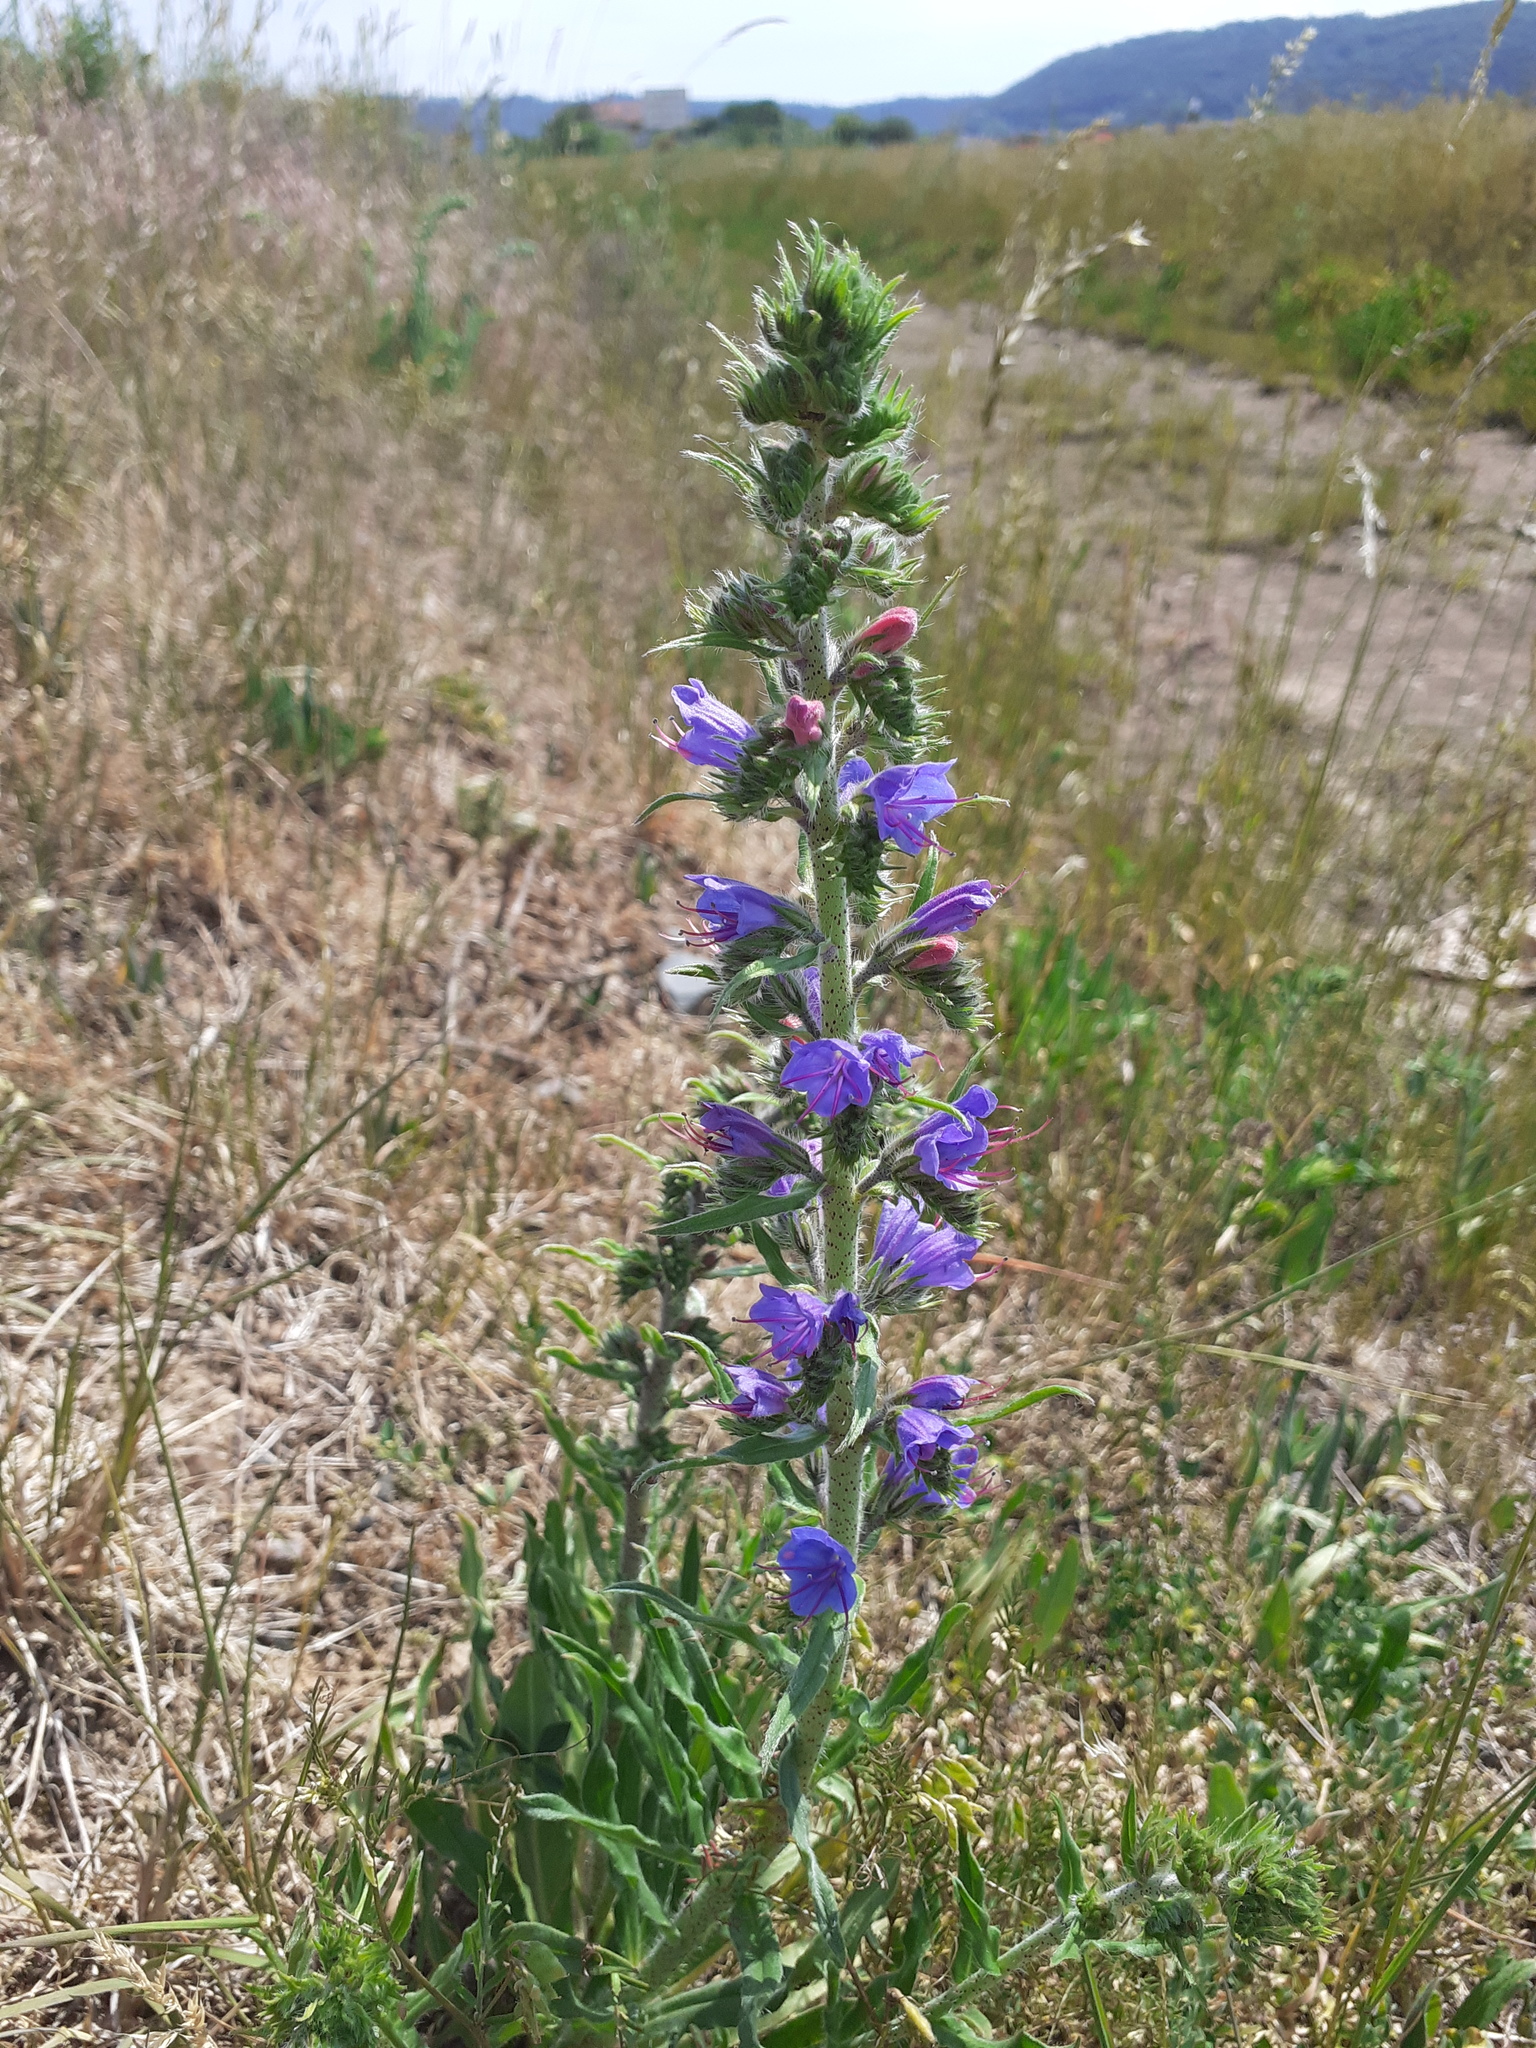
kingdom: Plantae
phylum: Tracheophyta
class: Magnoliopsida
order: Boraginales
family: Boraginaceae
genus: Echium
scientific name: Echium vulgare
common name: Common viper's bugloss
